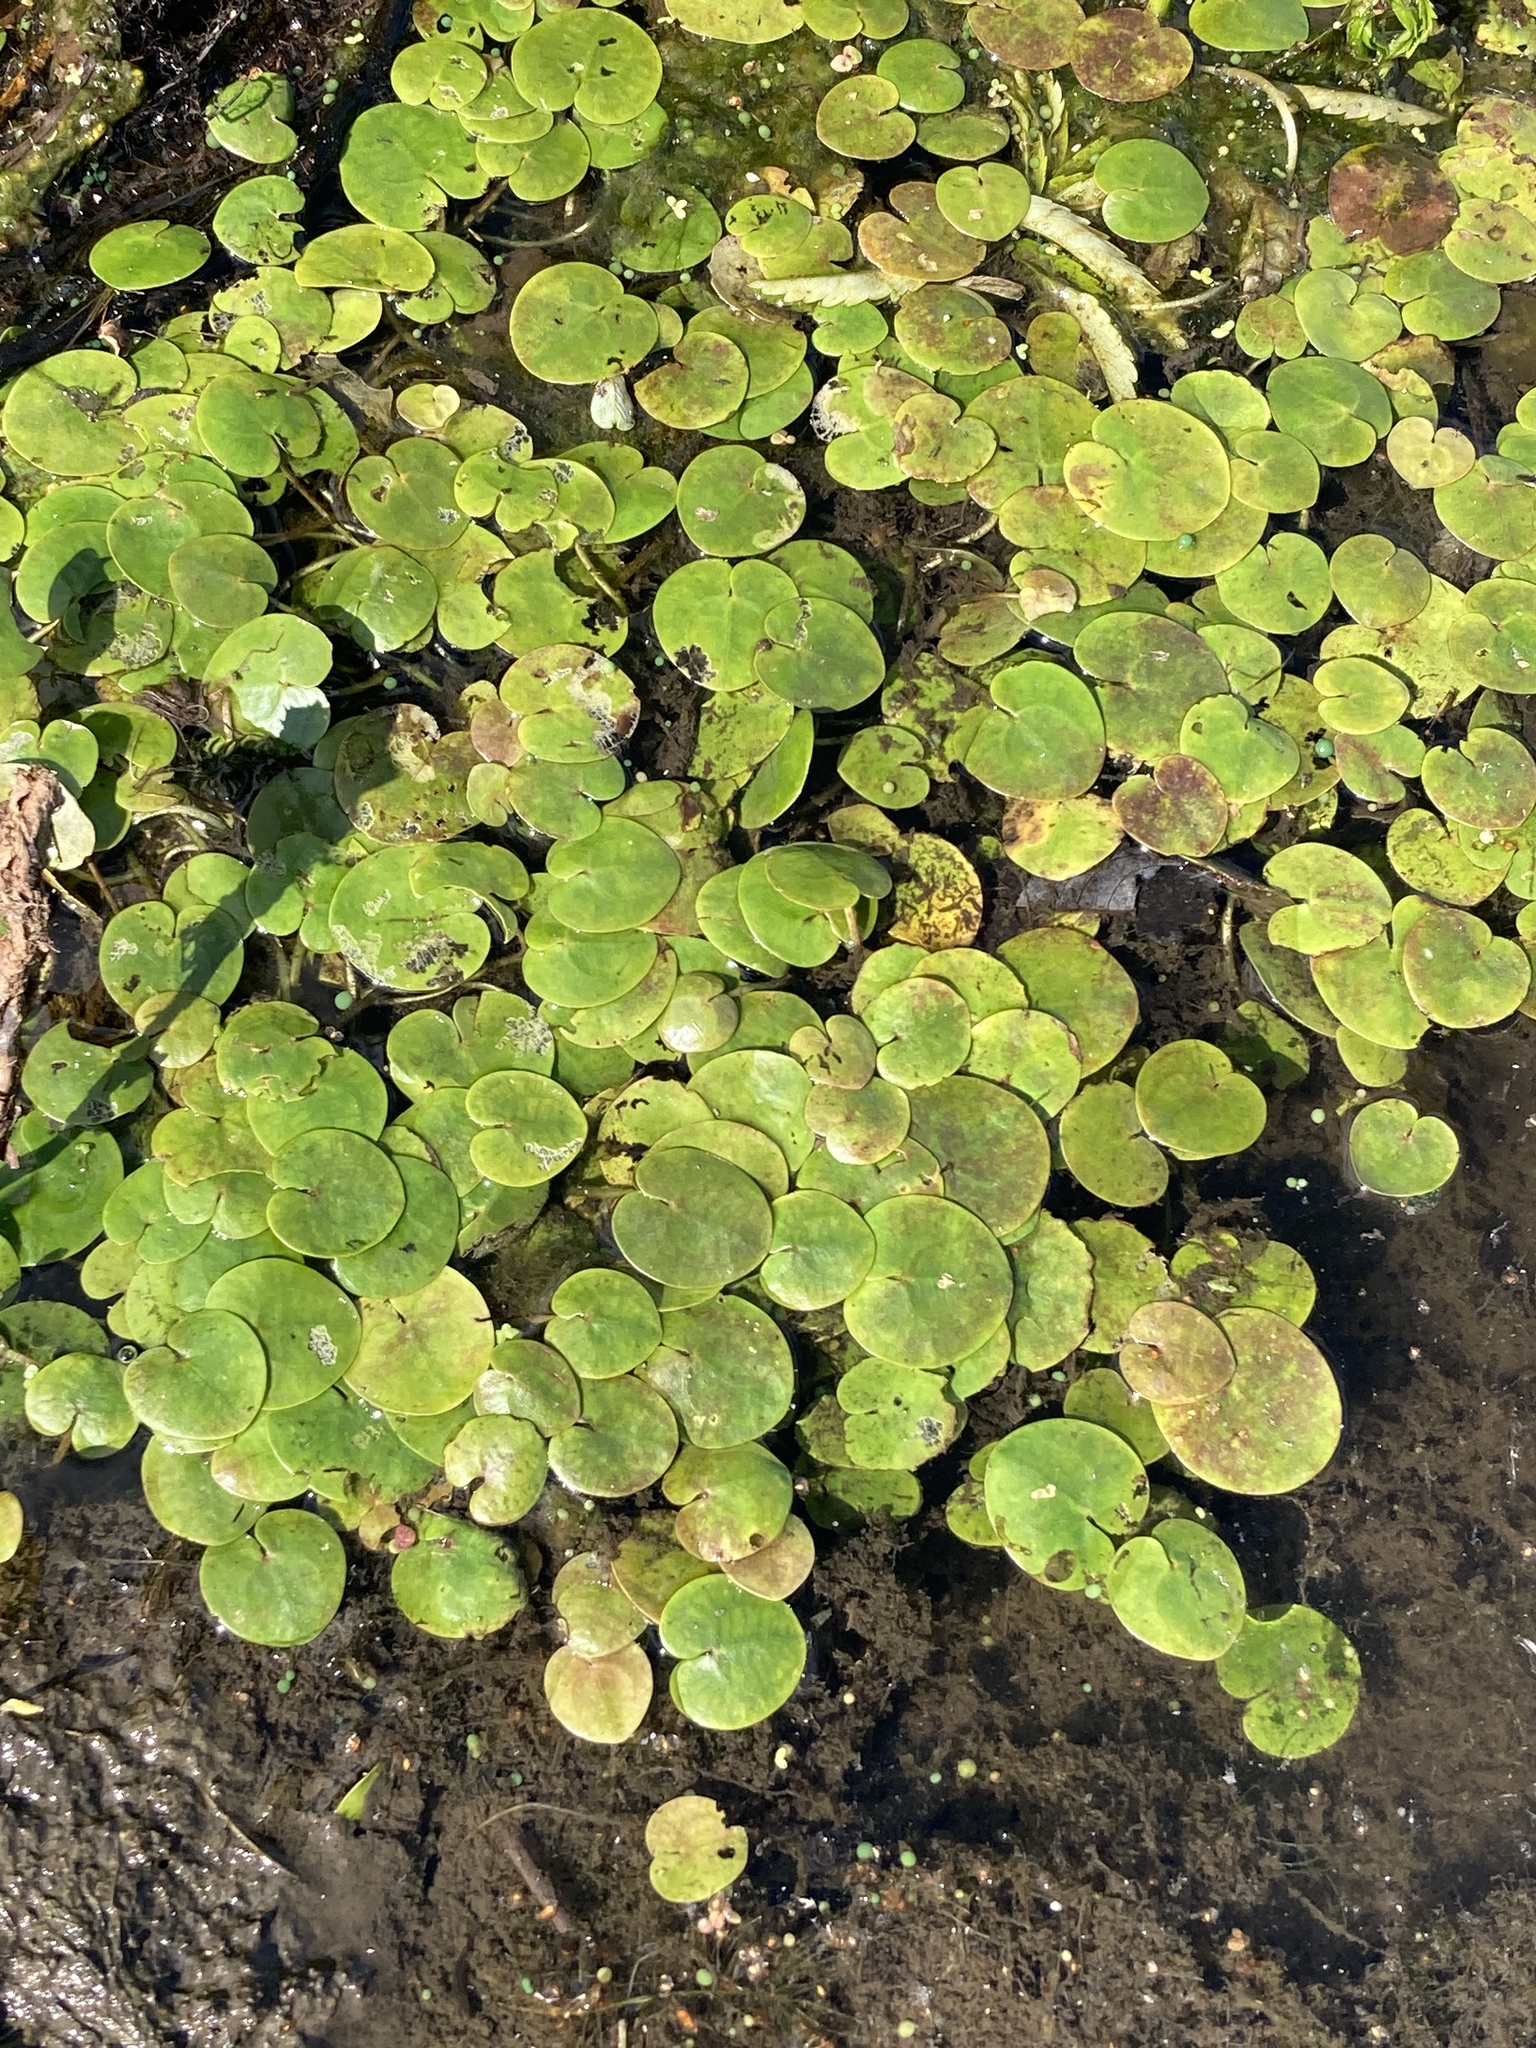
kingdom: Plantae
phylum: Tracheophyta
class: Liliopsida
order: Alismatales
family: Hydrocharitaceae
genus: Hydrocharis
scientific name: Hydrocharis morsus-ranae
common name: Frogbit
